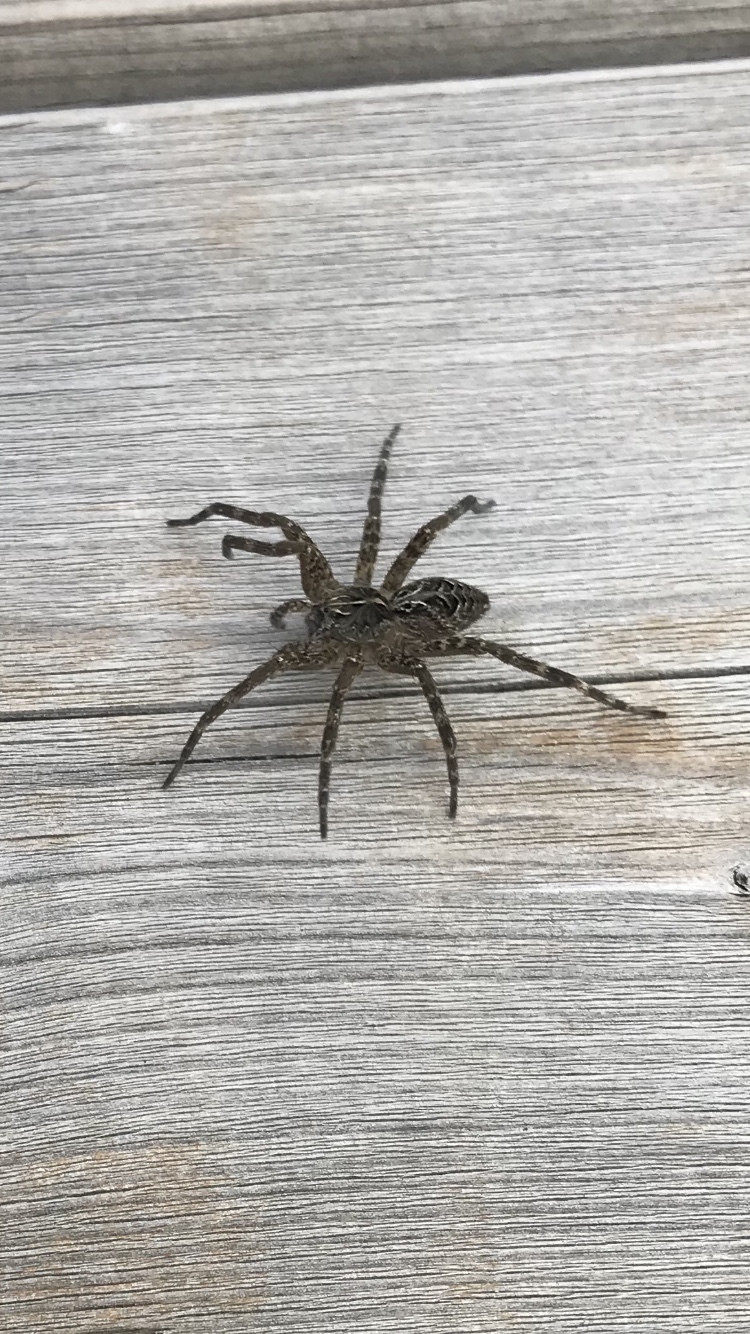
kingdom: Animalia
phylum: Arthropoda
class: Arachnida
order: Araneae
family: Pisauridae
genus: Dolomedes
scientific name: Dolomedes scriptus
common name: Striped fishing spider
